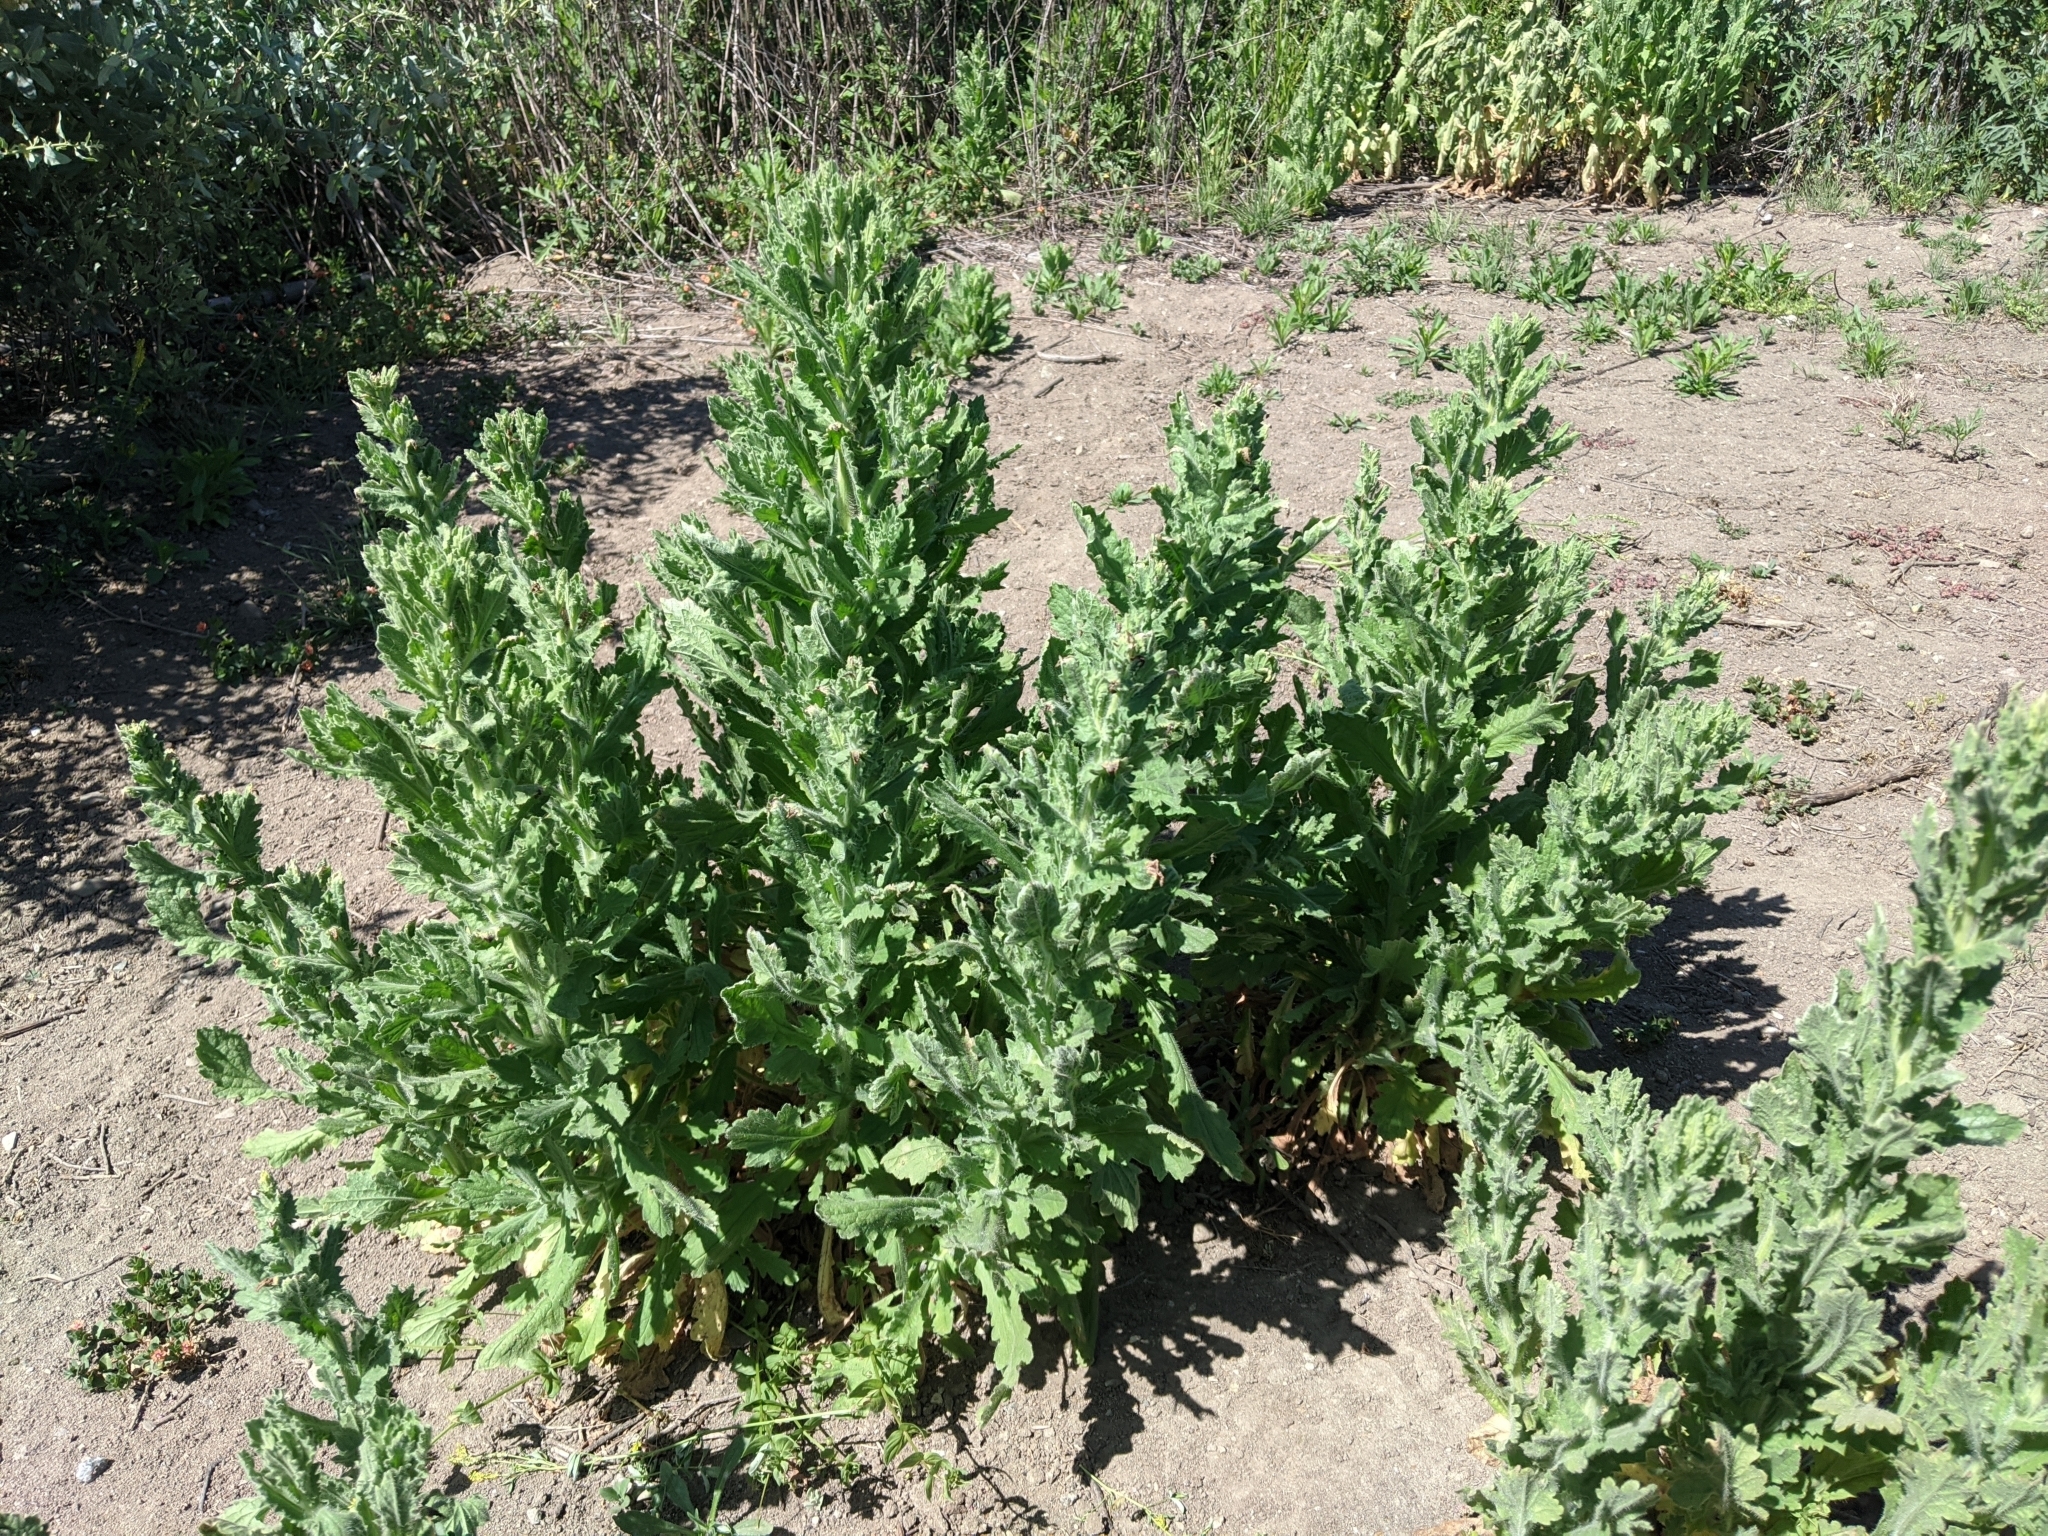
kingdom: Plantae
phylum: Tracheophyta
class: Magnoliopsida
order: Asterales
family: Asteraceae
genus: Laennecia
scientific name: Laennecia coulteri
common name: Coulter's woolwort
